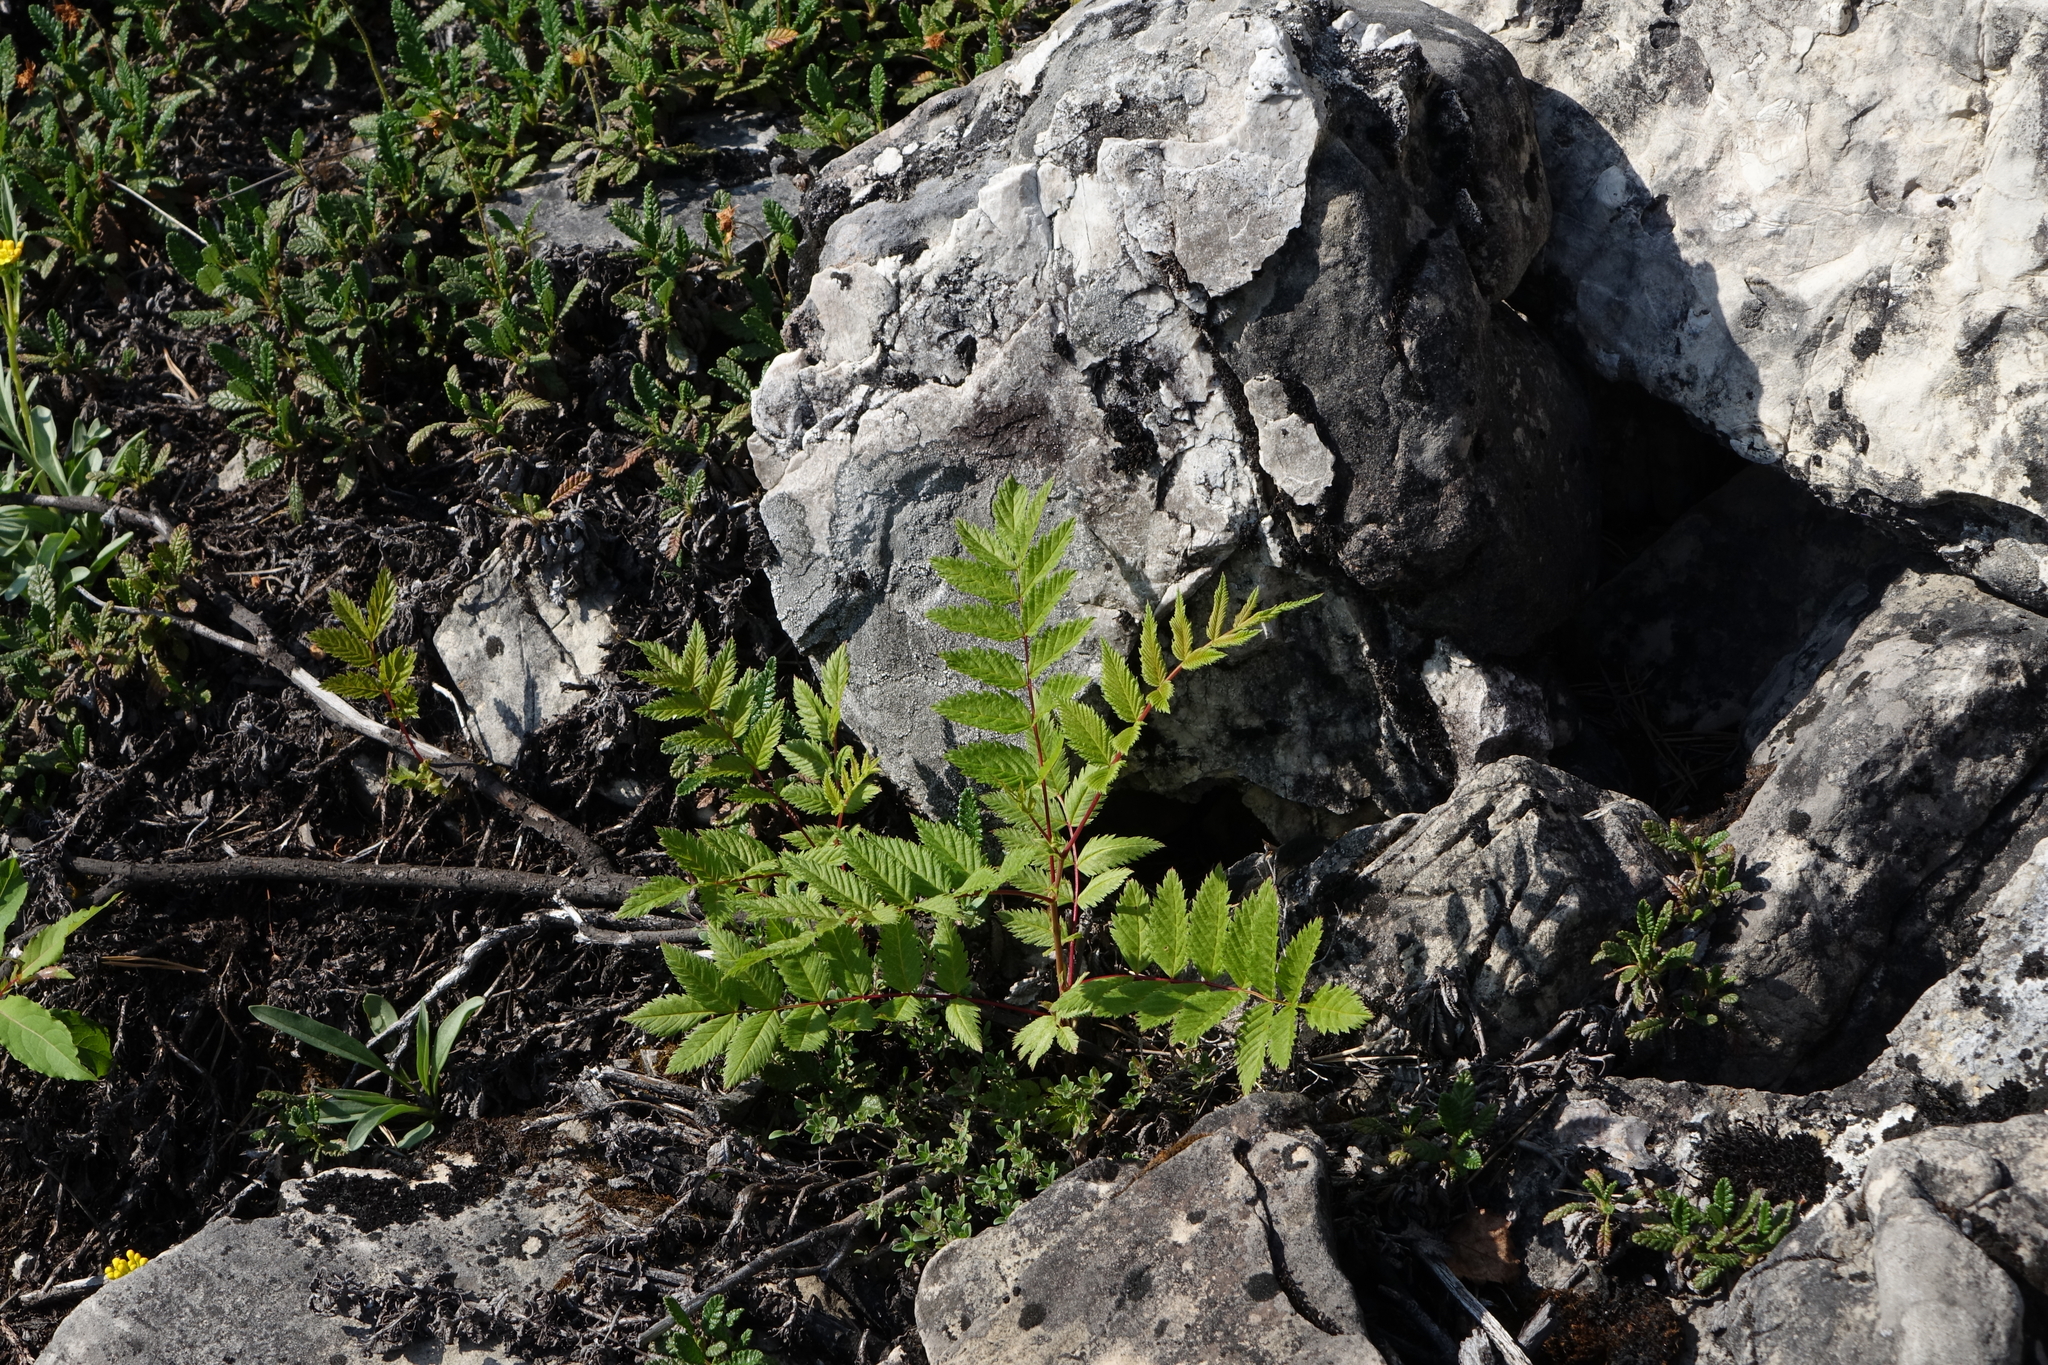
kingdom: Plantae
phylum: Tracheophyta
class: Magnoliopsida
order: Rosales
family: Rosaceae
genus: Sorbaria
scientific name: Sorbaria pallasii
